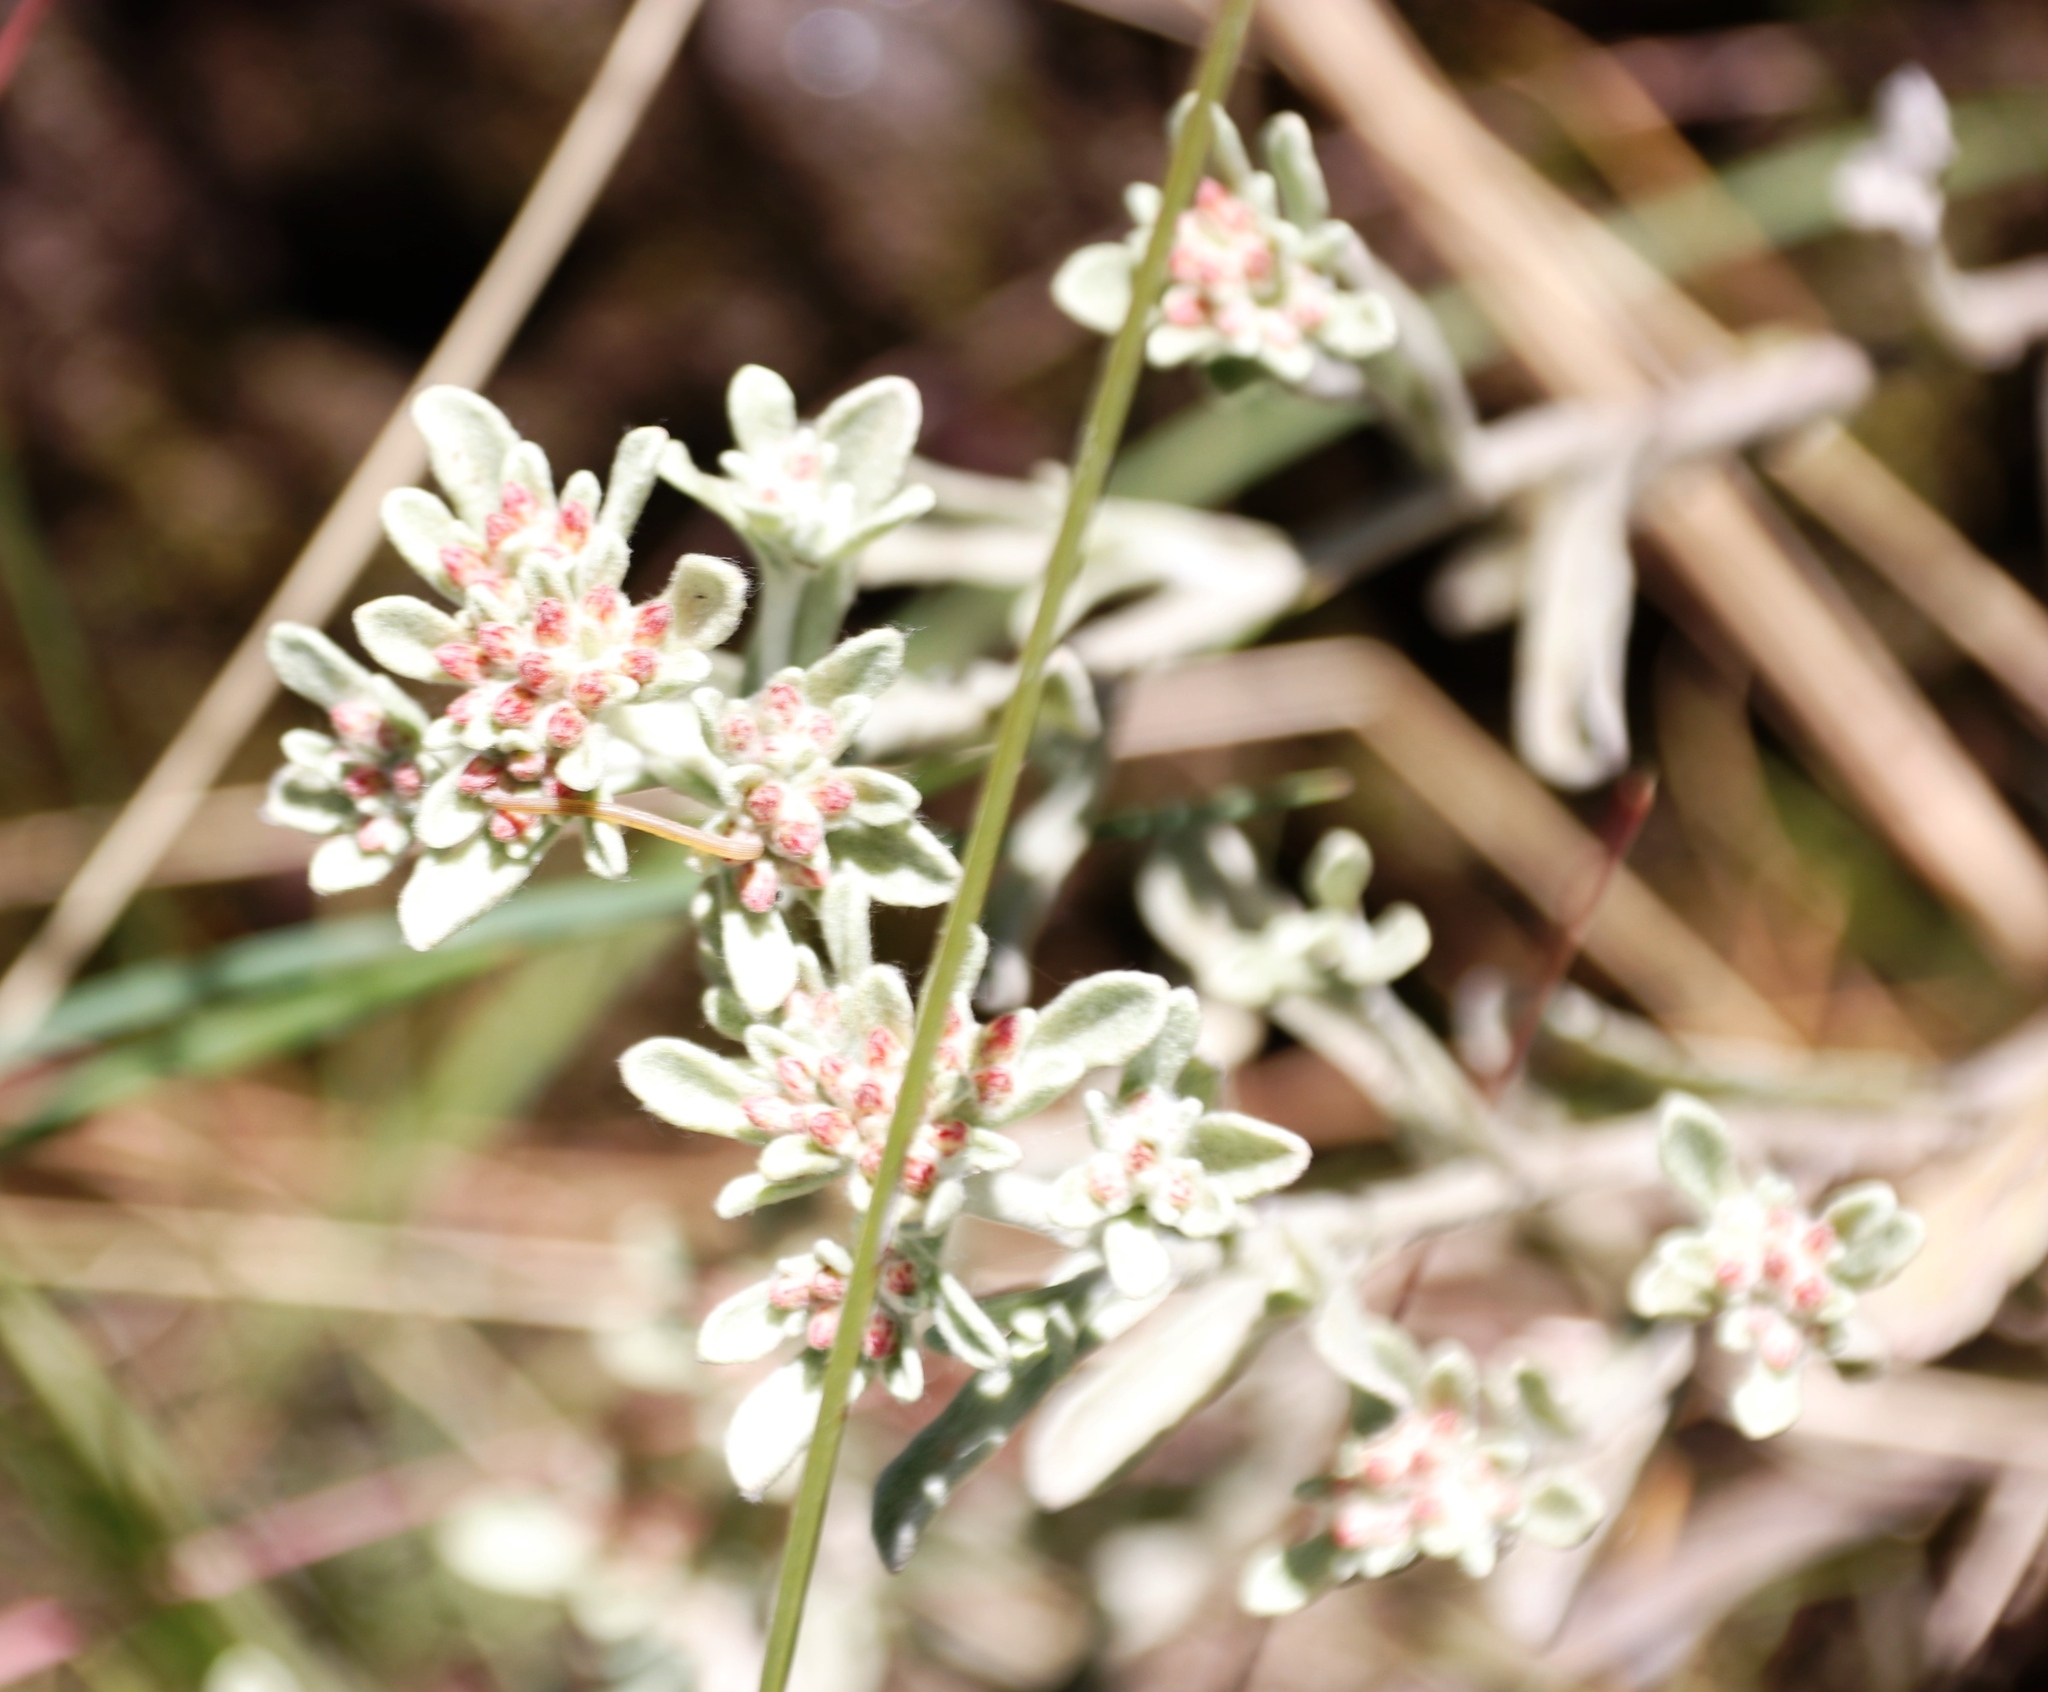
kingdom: Plantae
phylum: Tracheophyta
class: Magnoliopsida
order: Asterales
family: Asteraceae
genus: Helichrysum
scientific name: Helichrysum spiralepis
